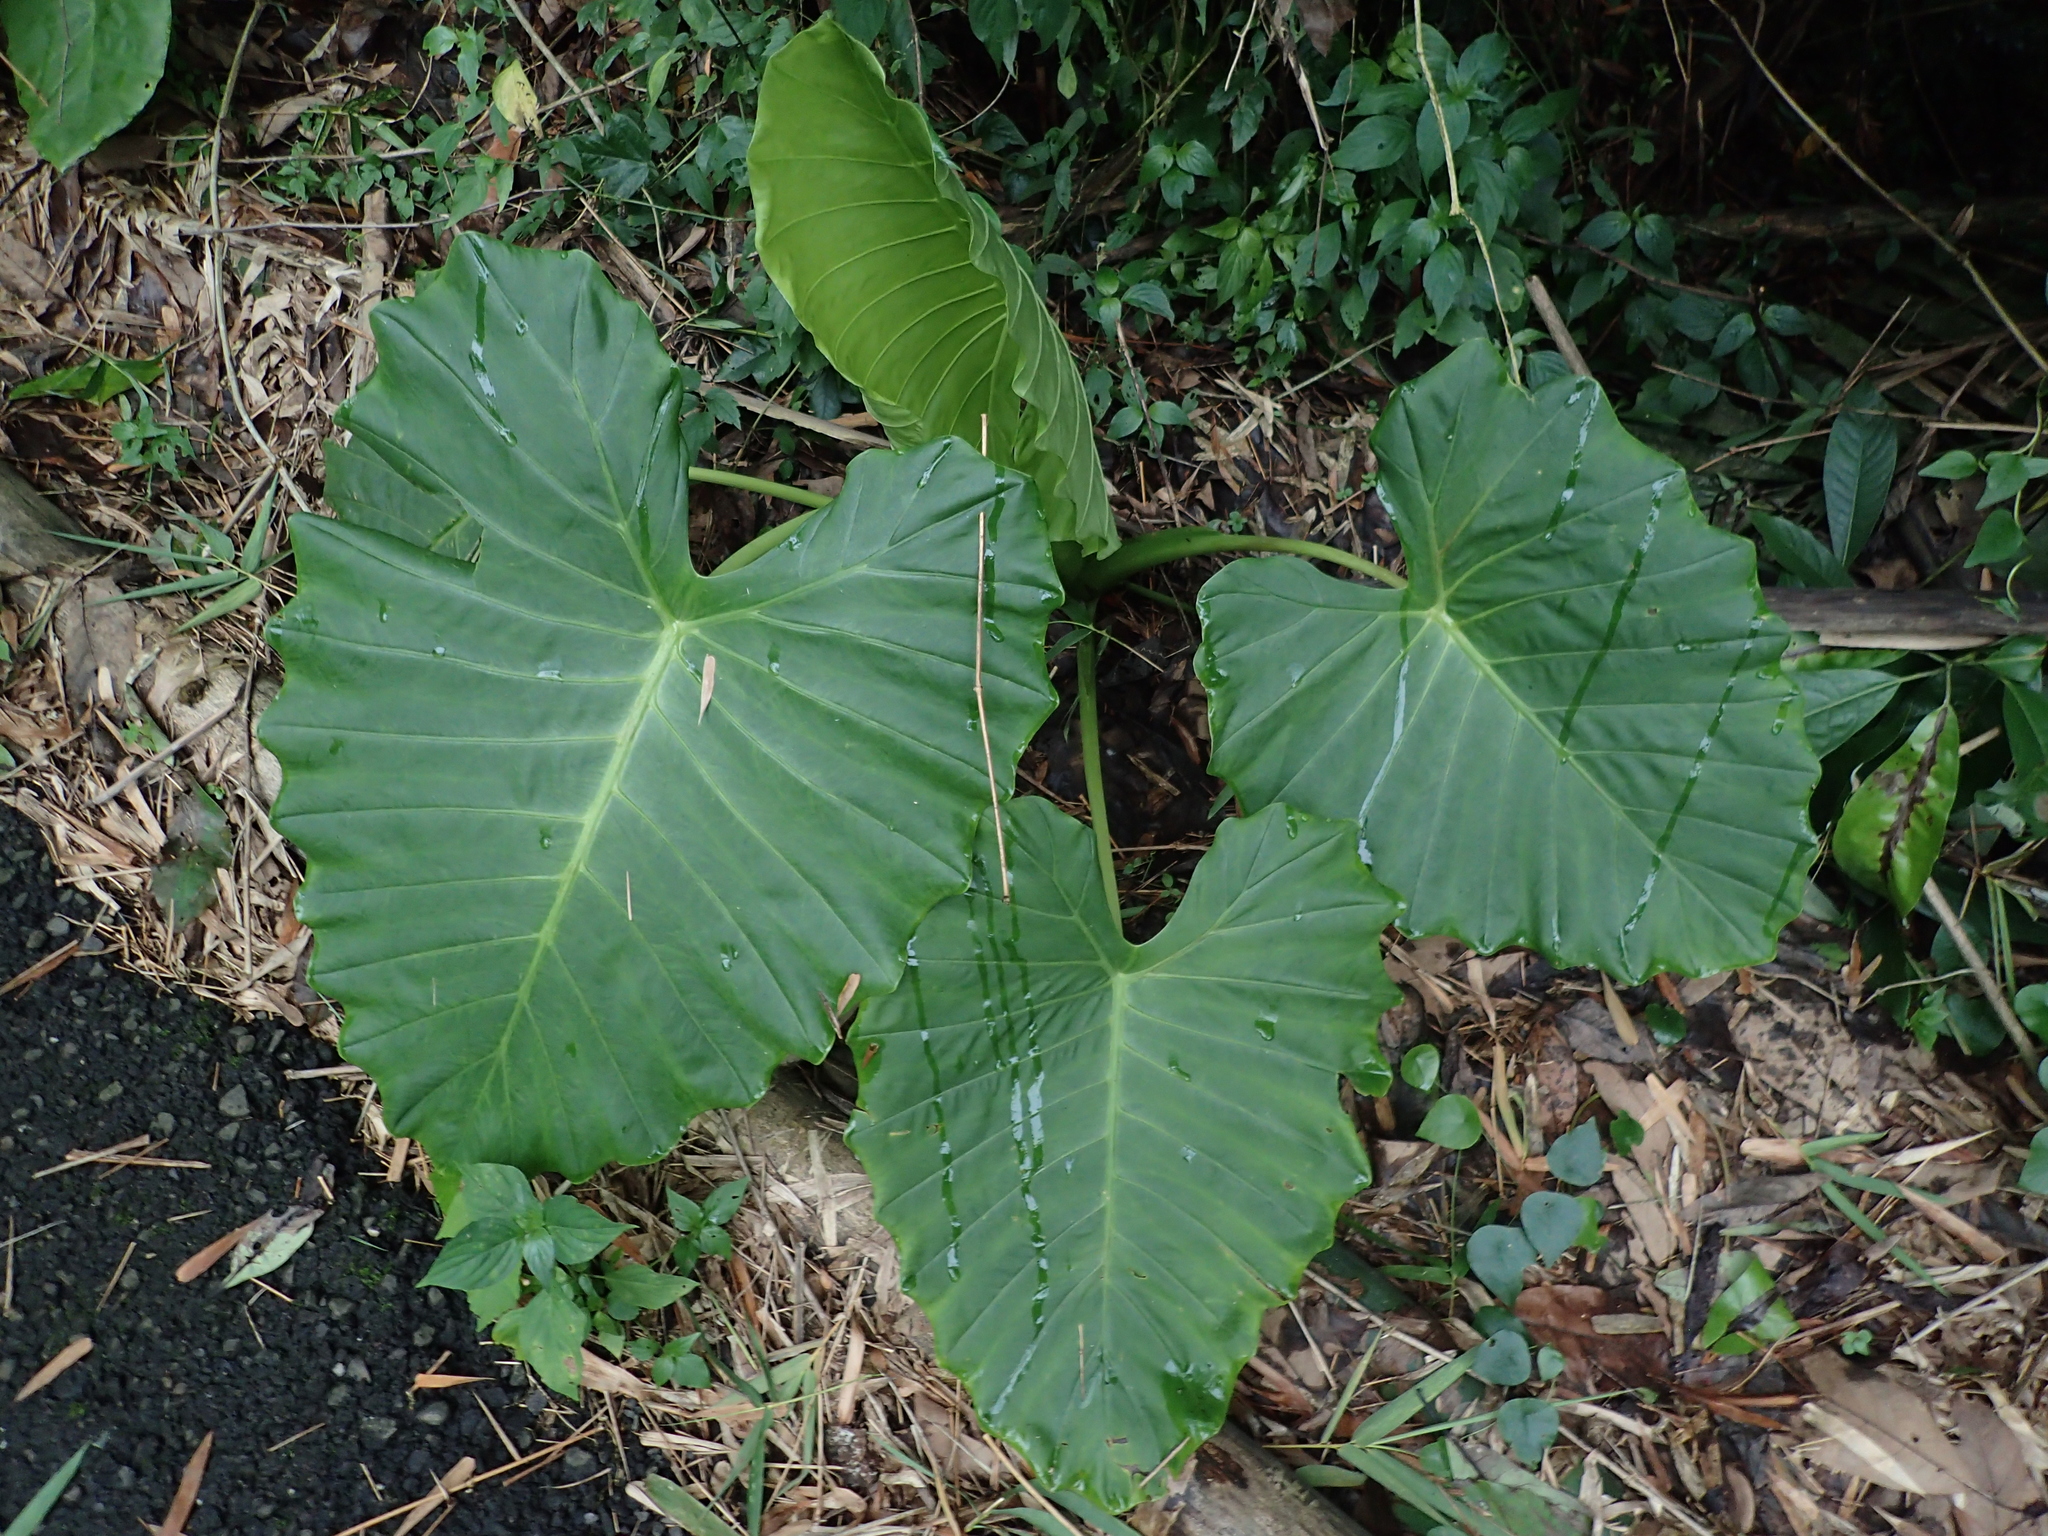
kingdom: Plantae
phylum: Tracheophyta
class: Liliopsida
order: Alismatales
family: Araceae
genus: Alocasia
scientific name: Alocasia odora
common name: Asian taro
